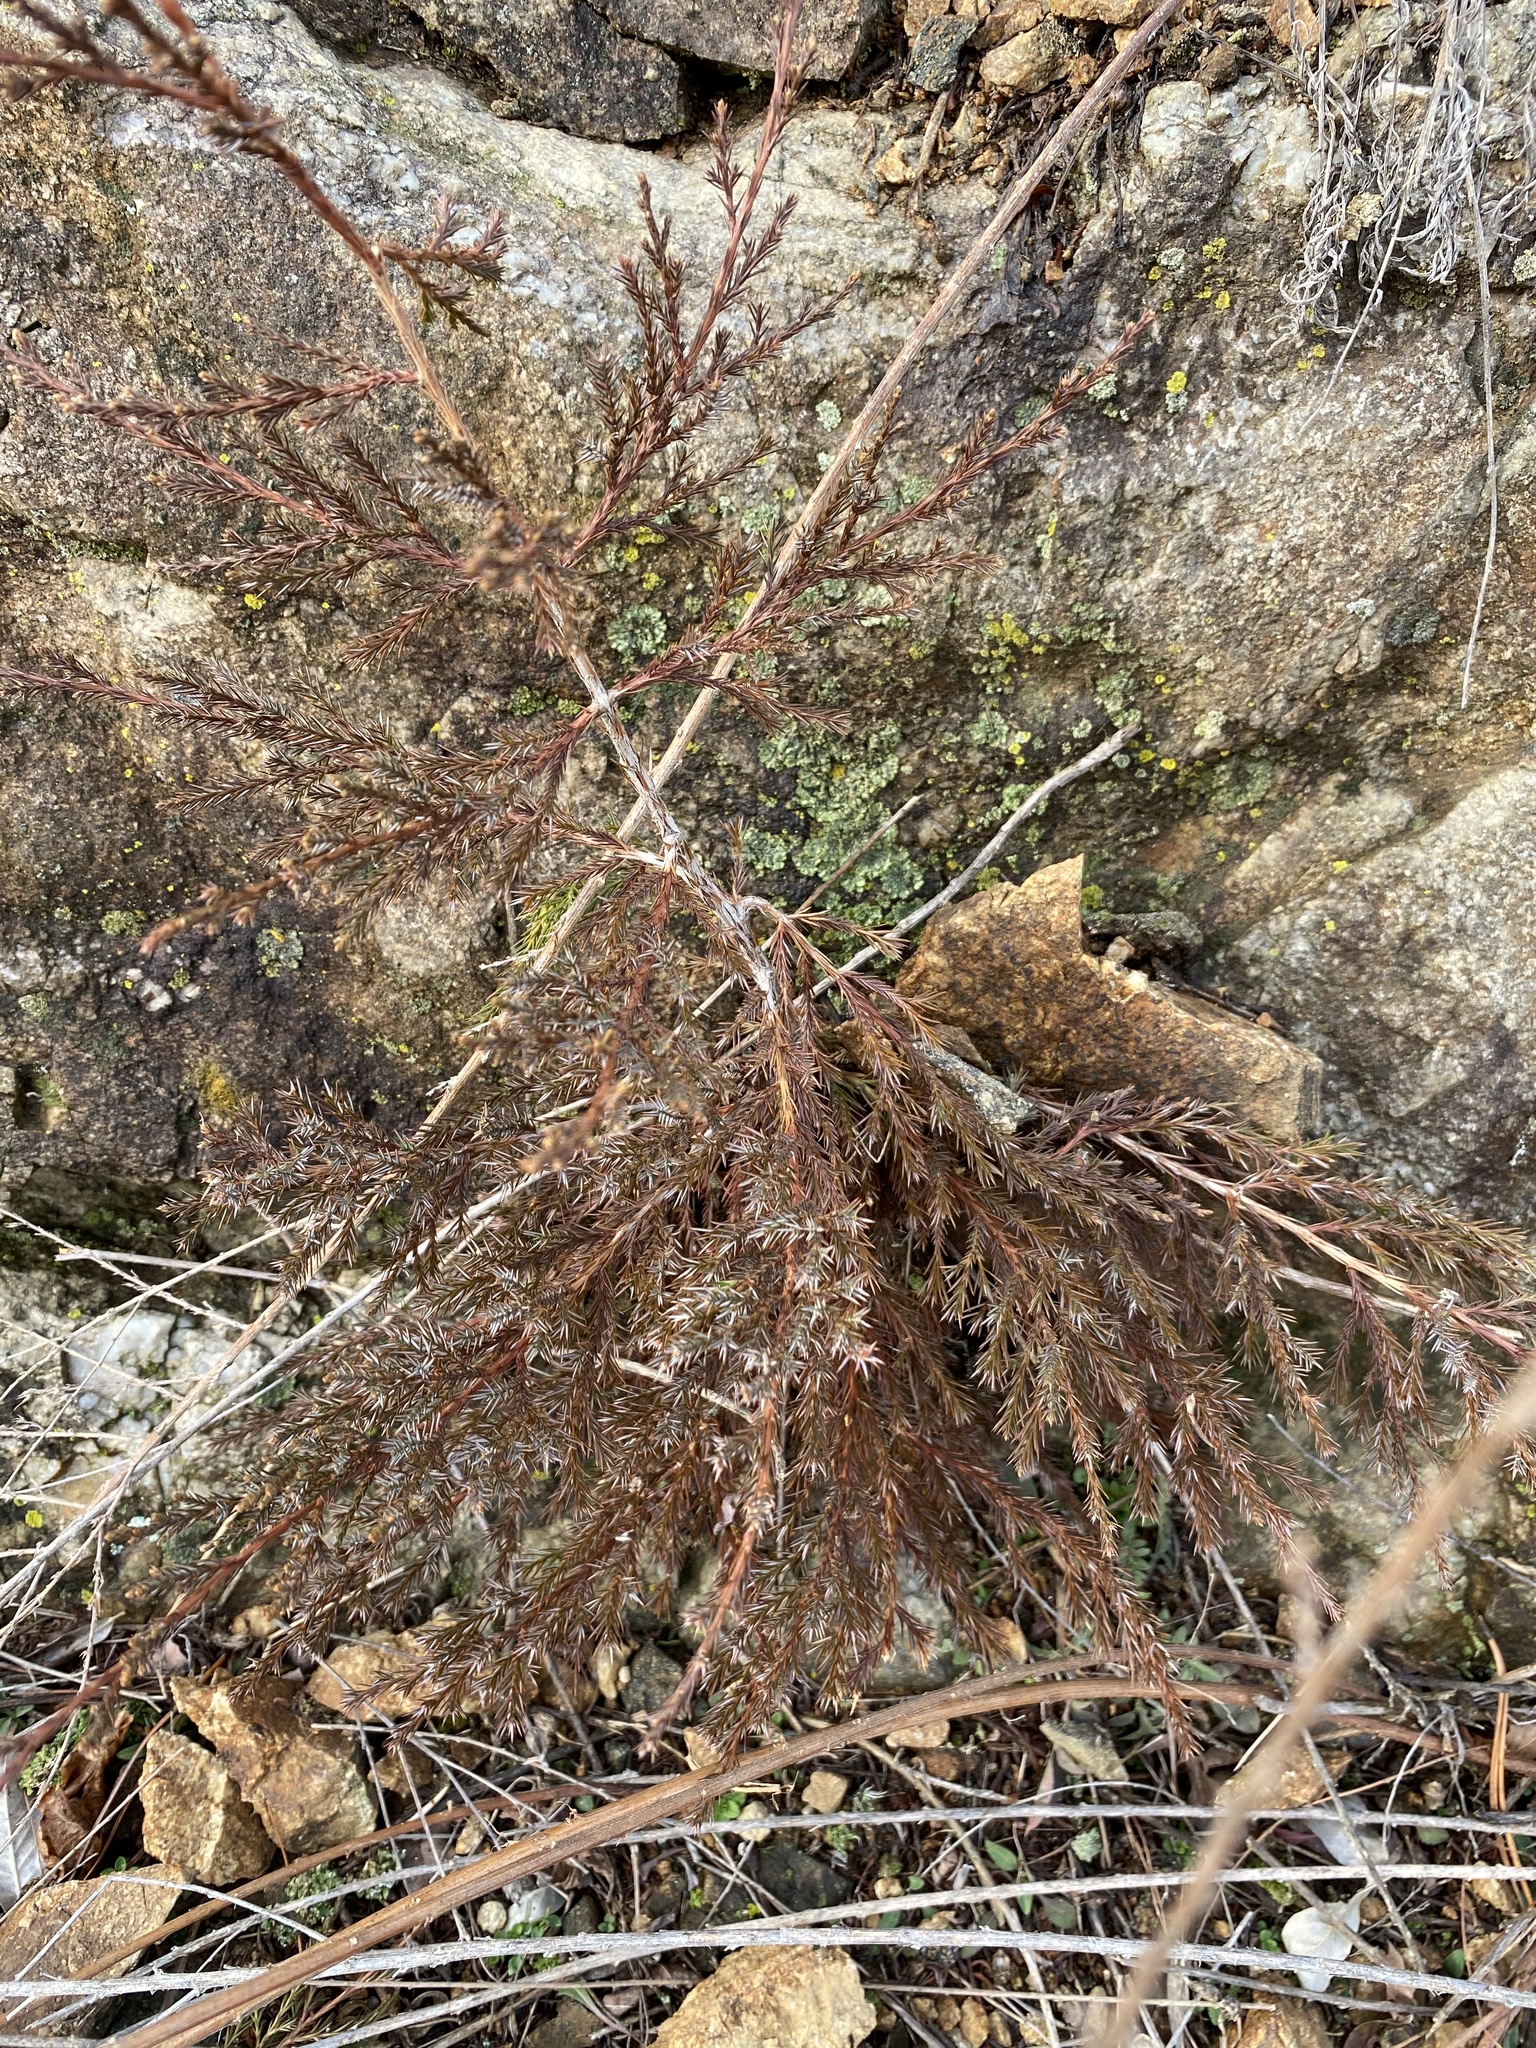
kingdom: Plantae
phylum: Tracheophyta
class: Pinopsida
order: Pinales
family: Cupressaceae
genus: Juniperus
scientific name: Juniperus virginiana
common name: Red juniper
